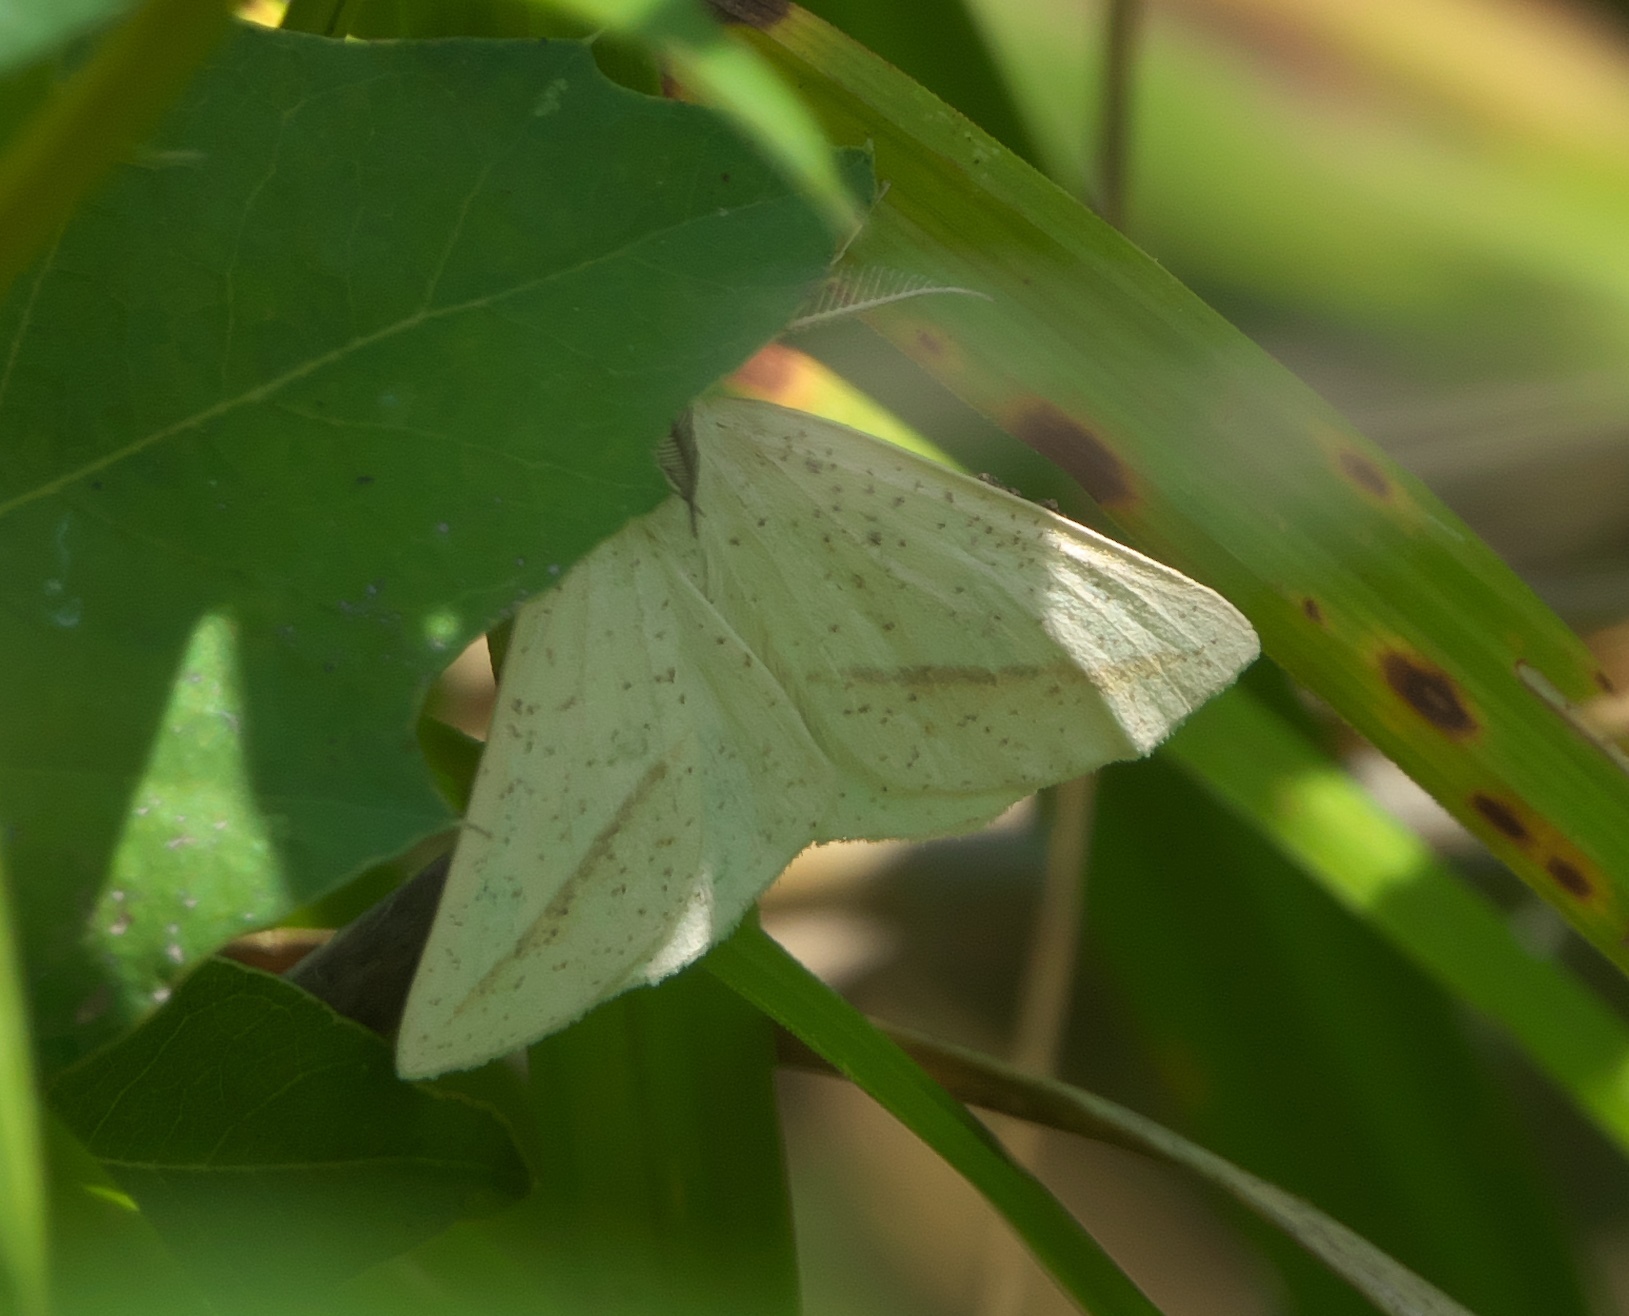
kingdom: Animalia
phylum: Arthropoda
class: Insecta
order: Lepidoptera
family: Geometridae
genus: Lychnosea
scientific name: Lychnosea intermicata
